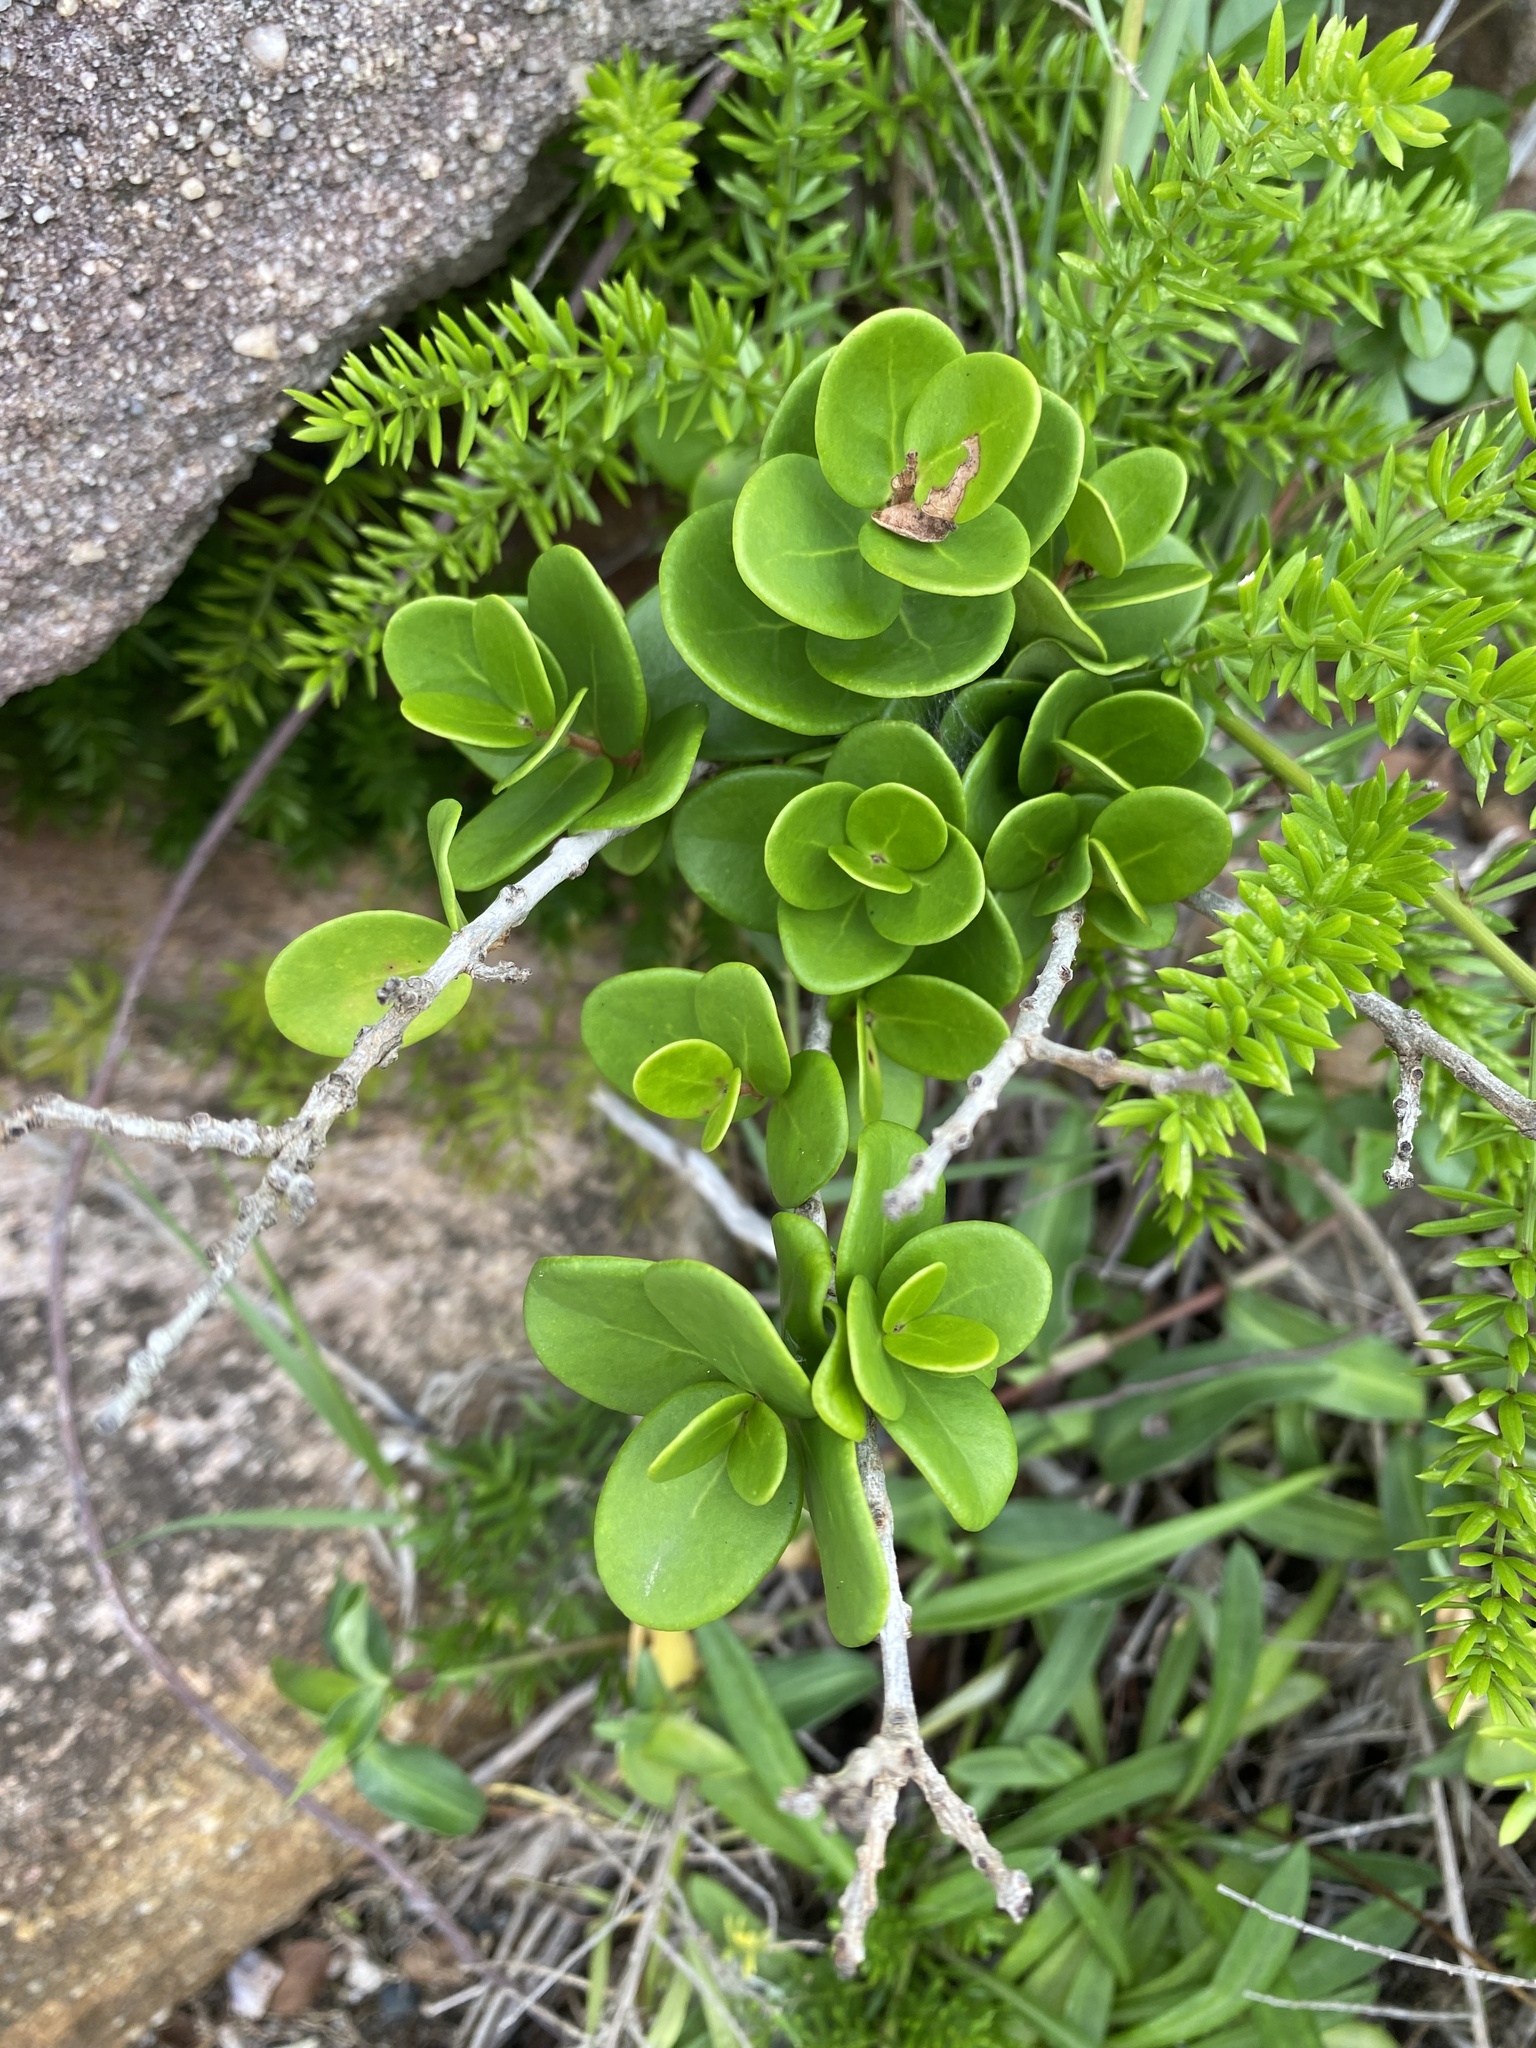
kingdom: Plantae
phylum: Tracheophyta
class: Magnoliopsida
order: Myrtales
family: Myrtaceae
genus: Eugenia
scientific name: Eugenia capensis
